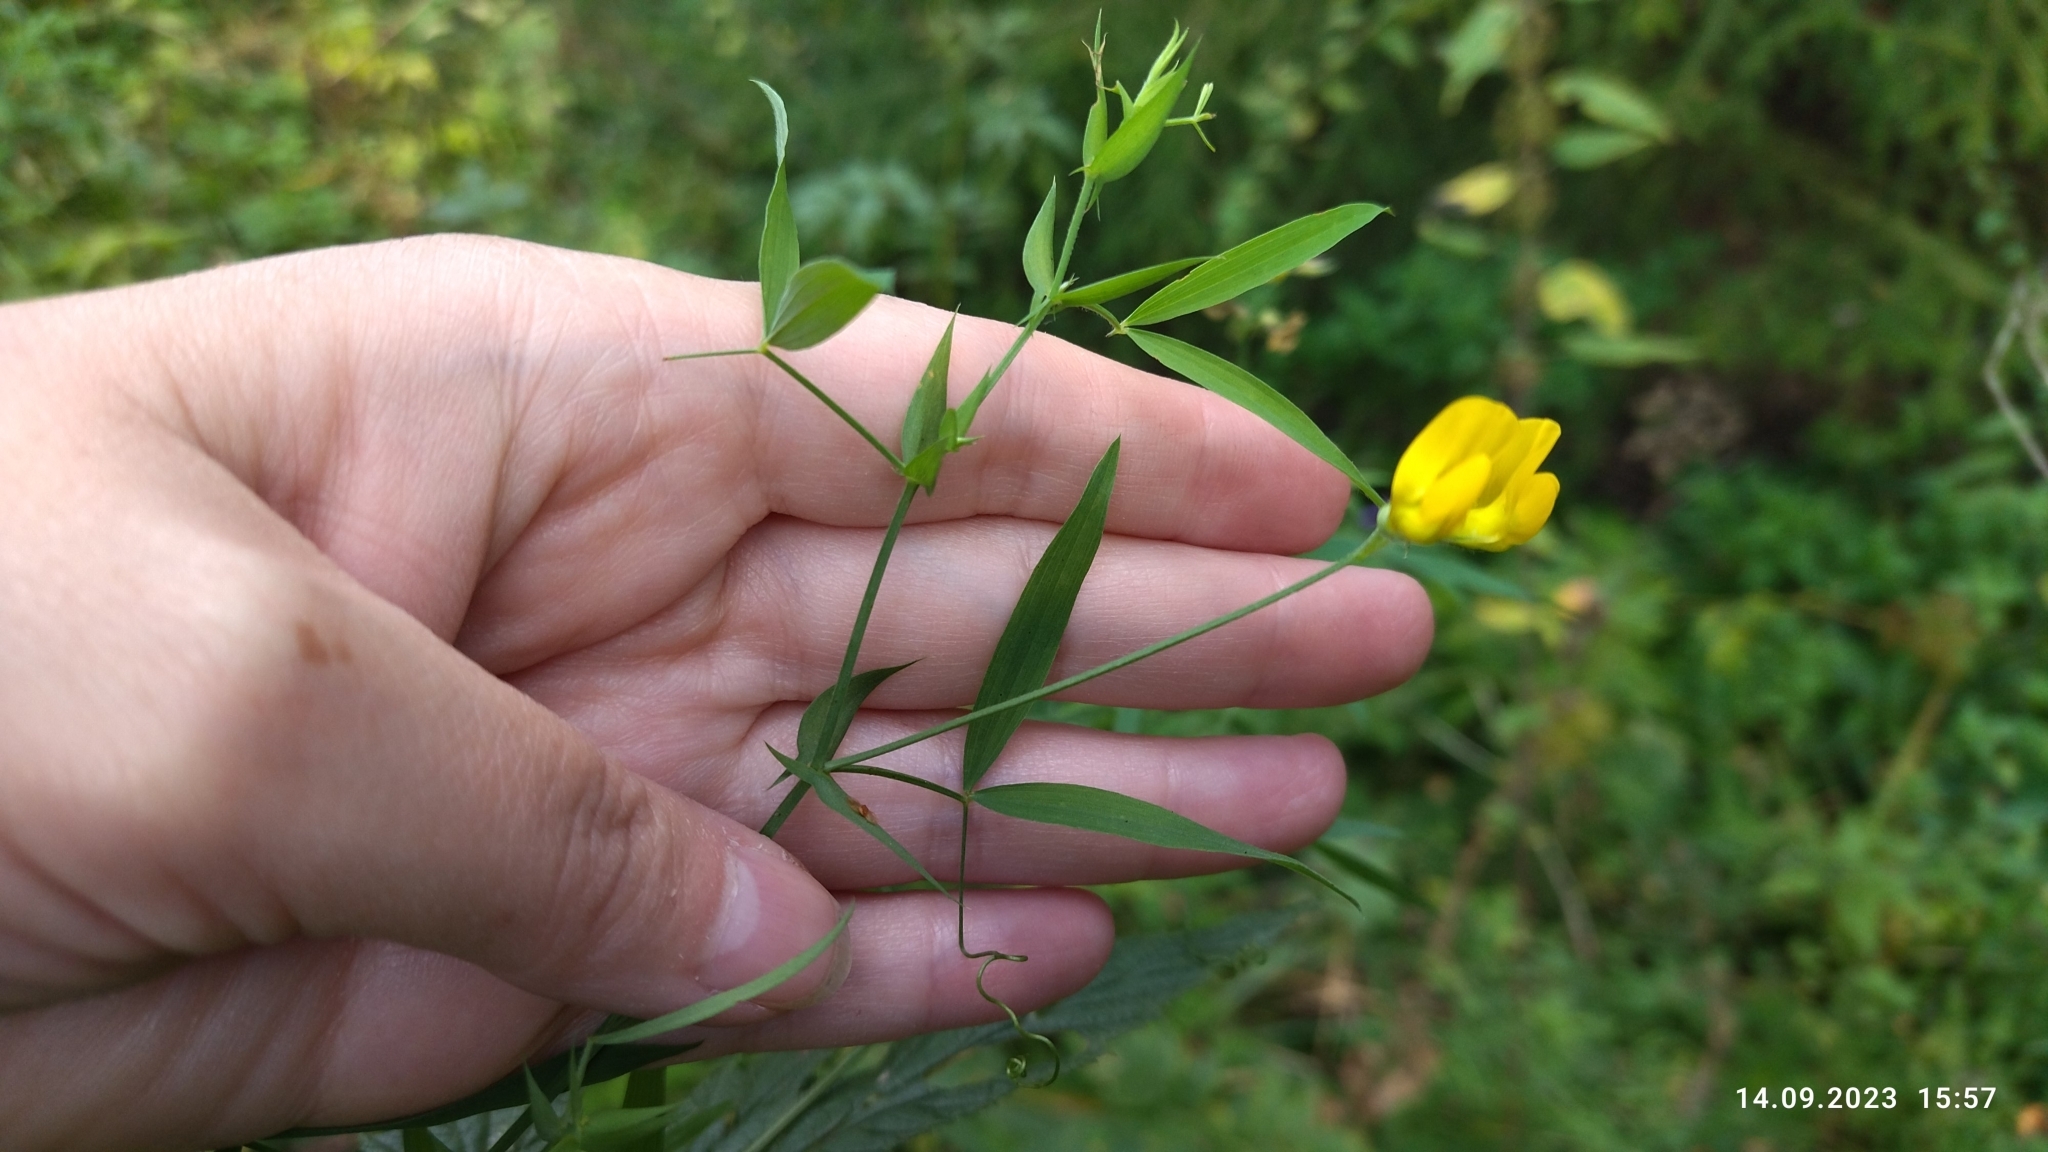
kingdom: Plantae
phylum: Tracheophyta
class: Magnoliopsida
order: Fabales
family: Fabaceae
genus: Lathyrus
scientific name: Lathyrus pratensis
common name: Meadow vetchling
